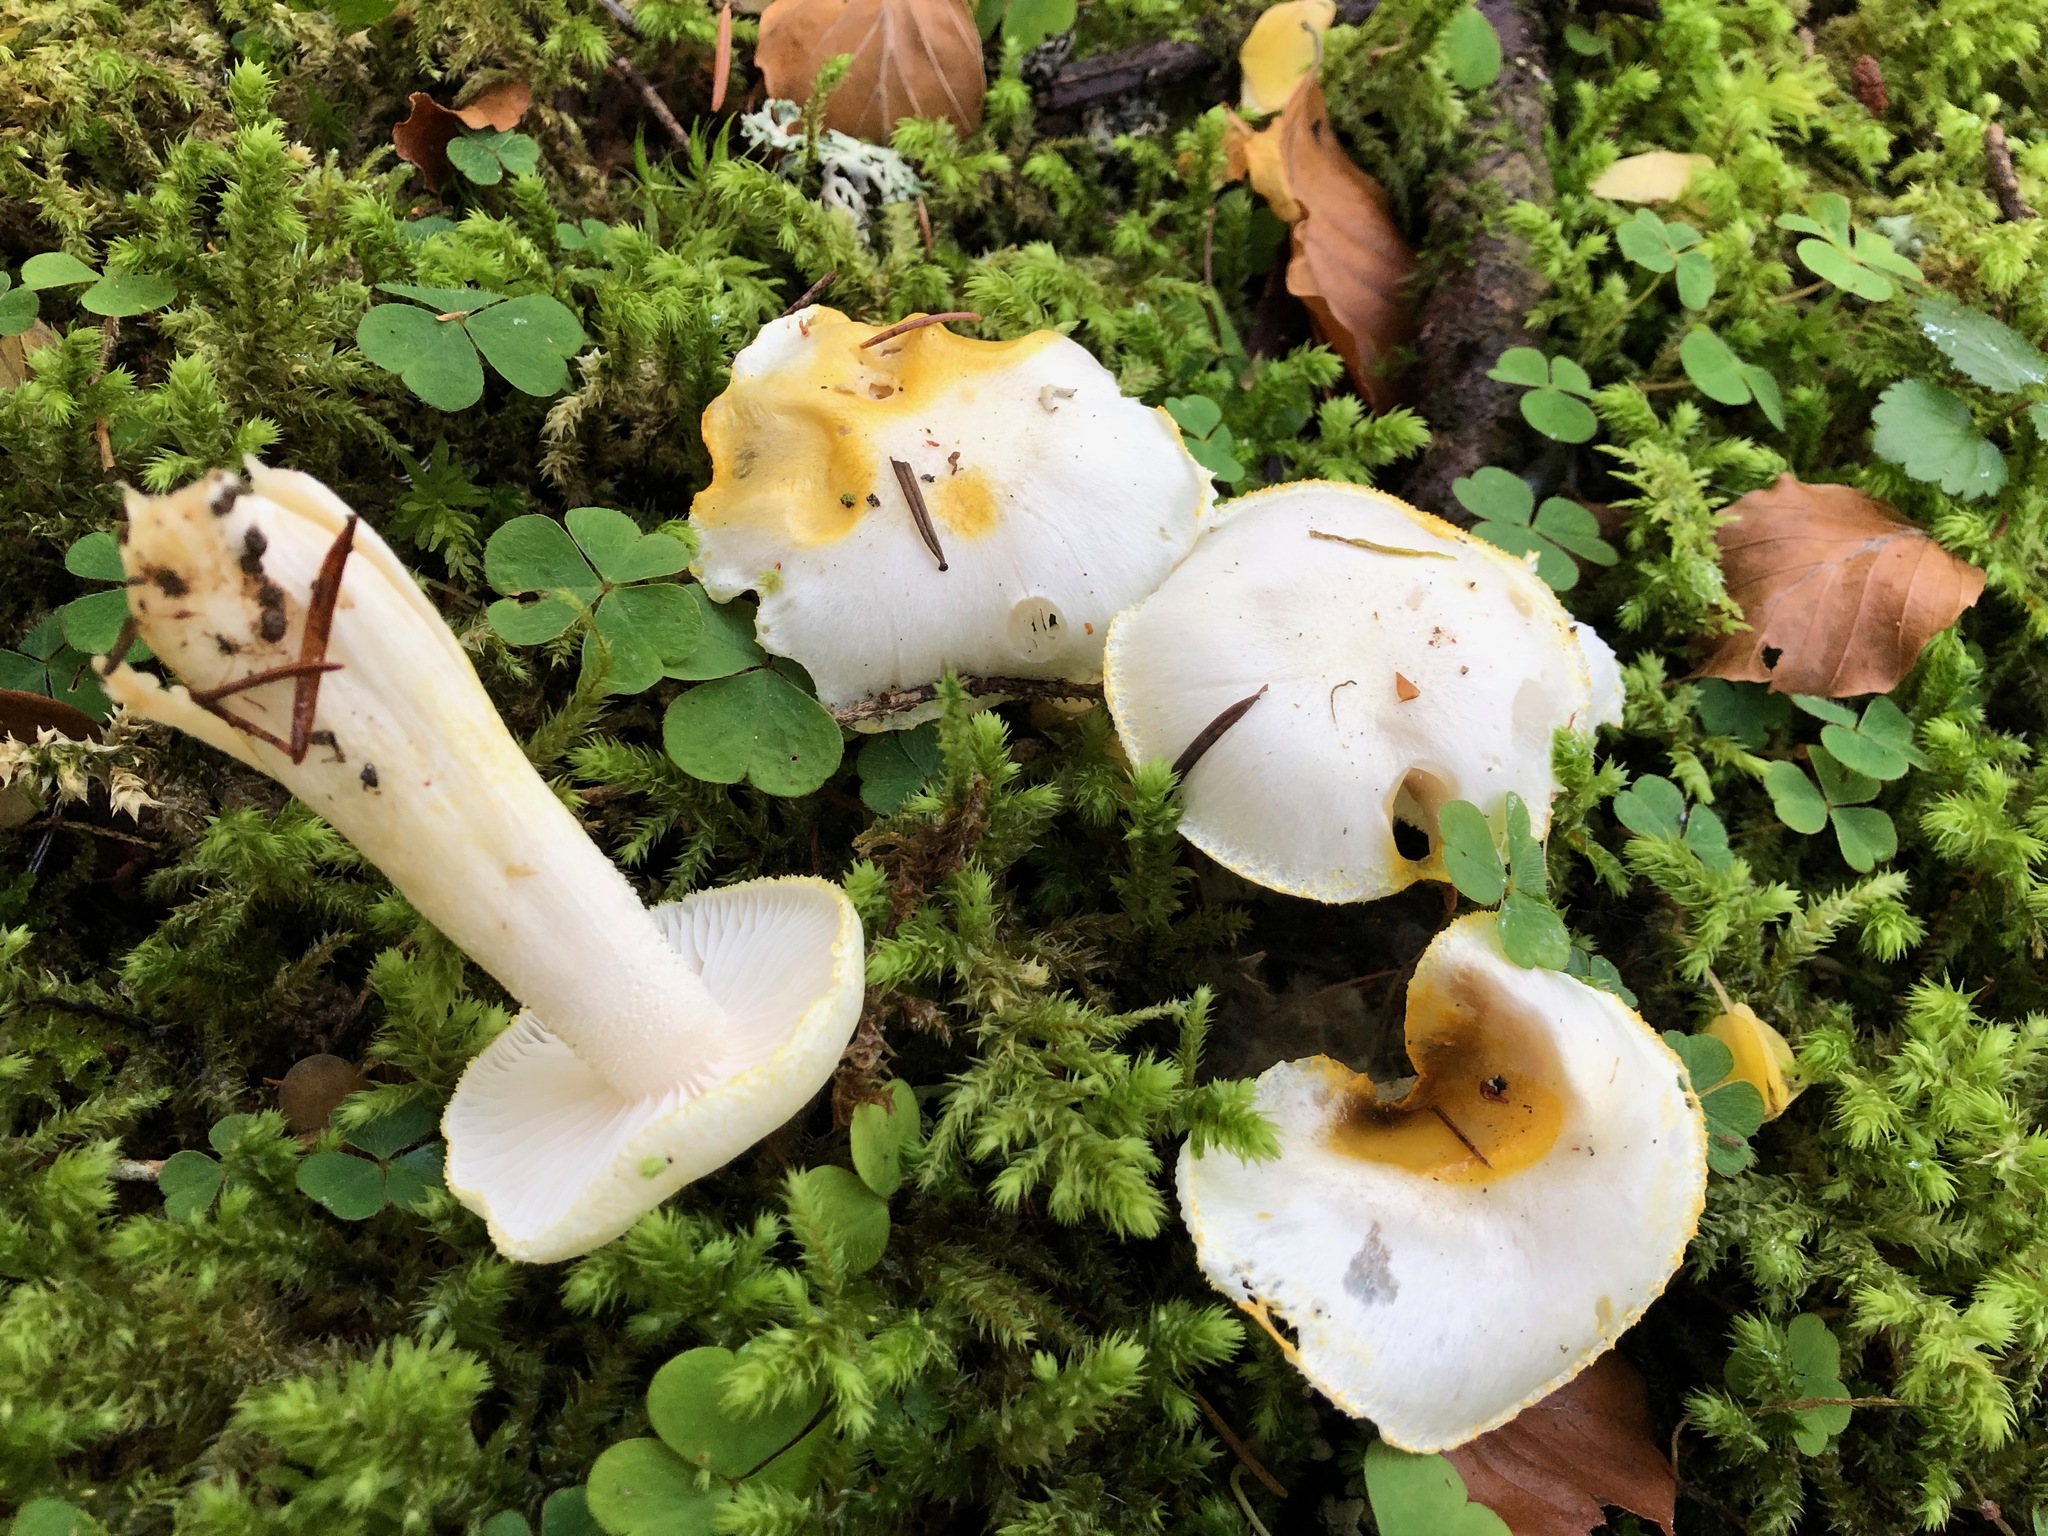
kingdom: Fungi
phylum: Basidiomycota
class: Agaricomycetes
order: Agaricales
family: Hygrophoraceae
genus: Hygrophorus
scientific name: Hygrophorus chrysodon
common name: Gold flecked woodwax
